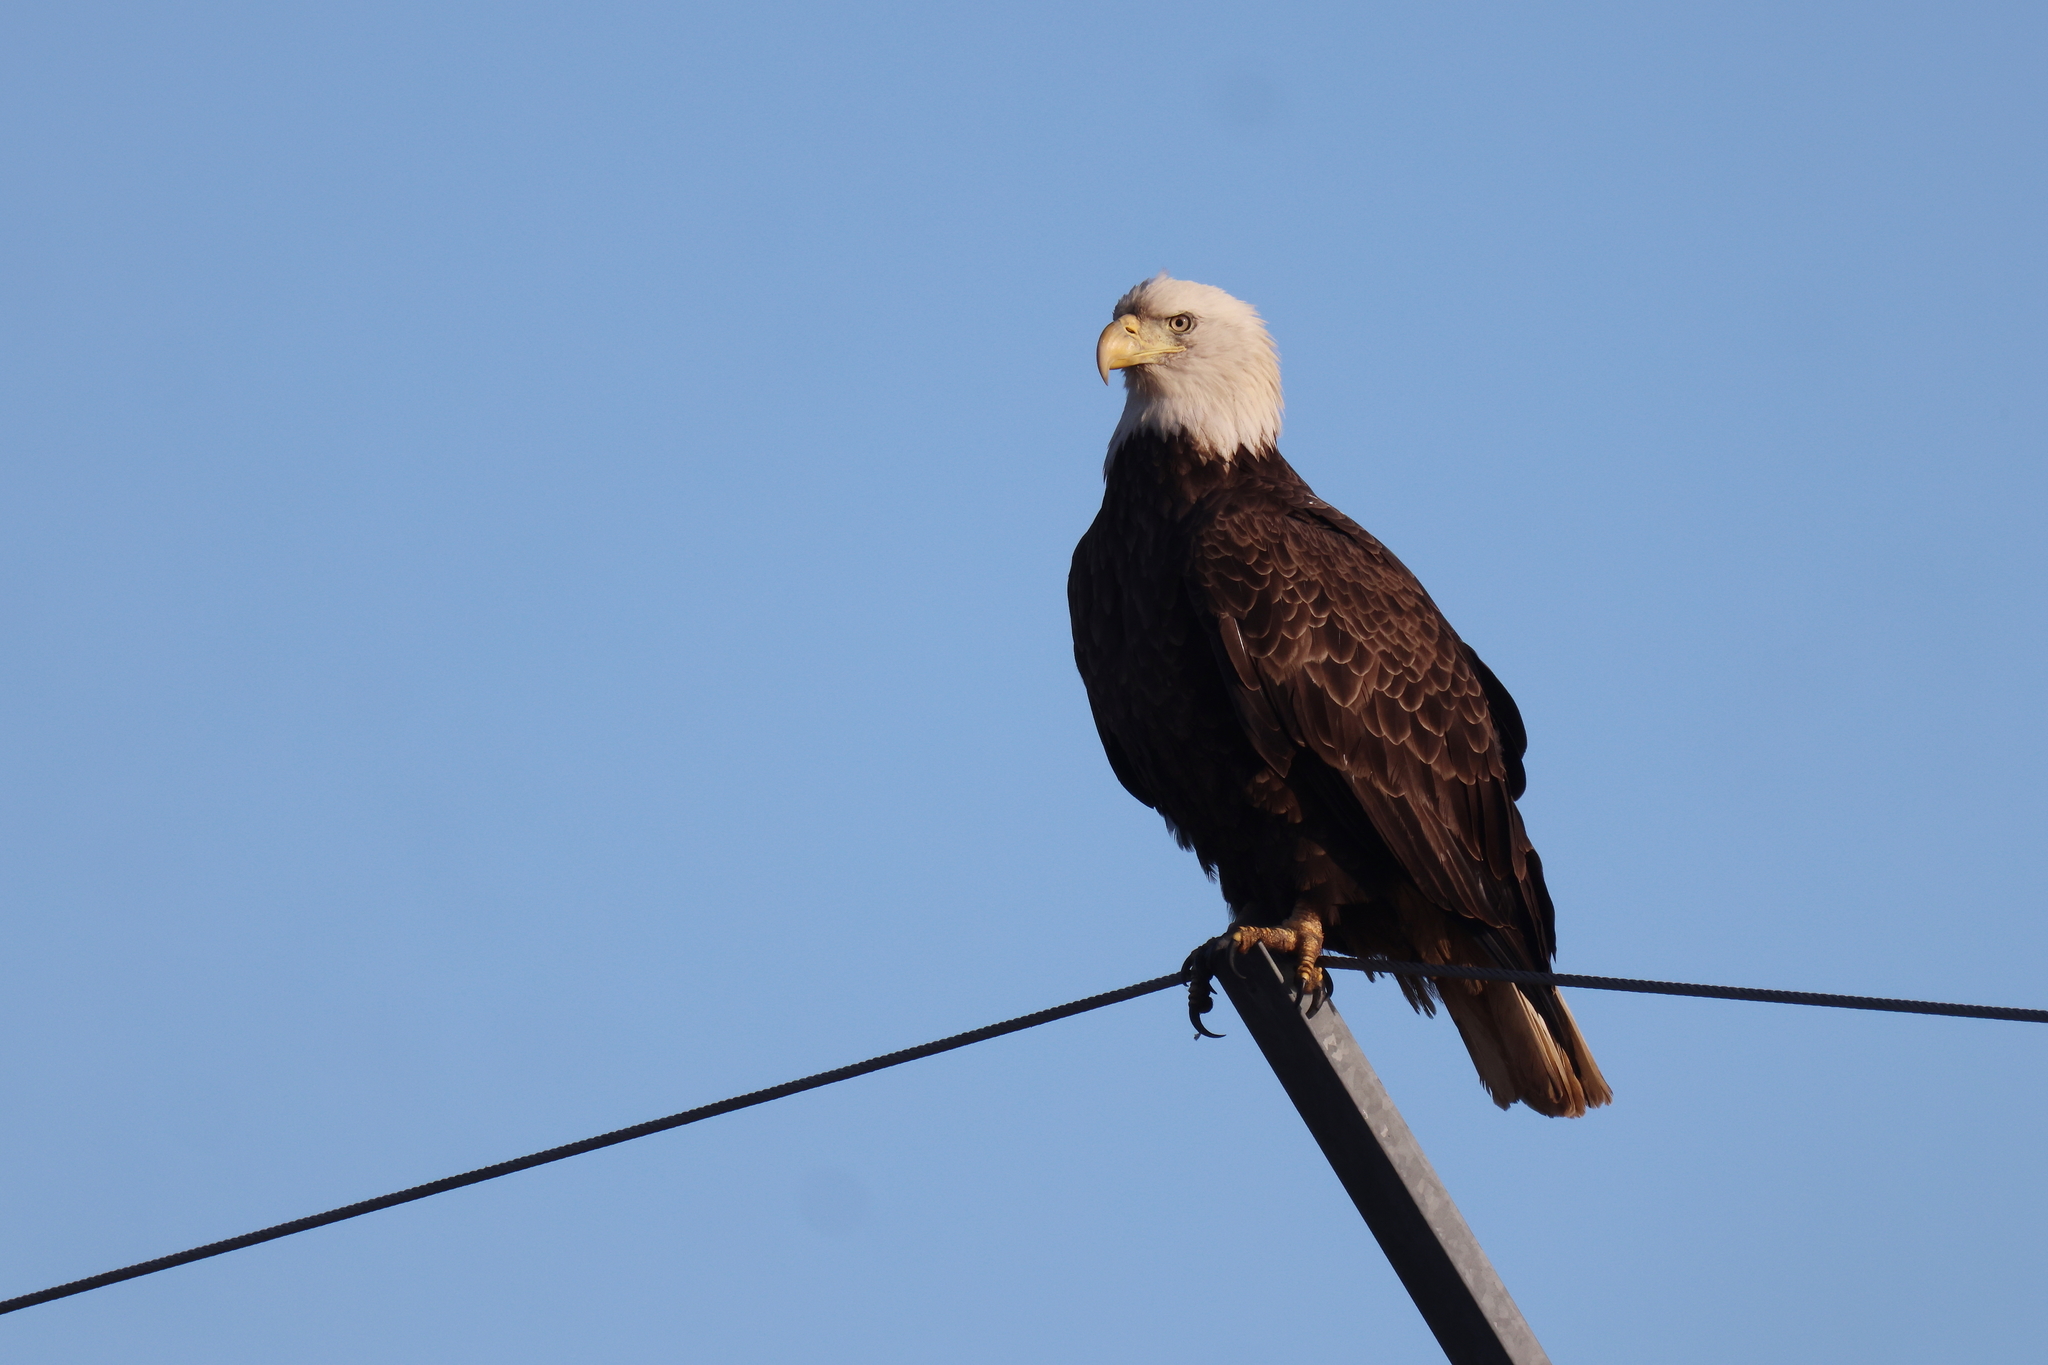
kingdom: Animalia
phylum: Chordata
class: Aves
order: Accipitriformes
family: Accipitridae
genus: Haliaeetus
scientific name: Haliaeetus leucocephalus
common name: Bald eagle
